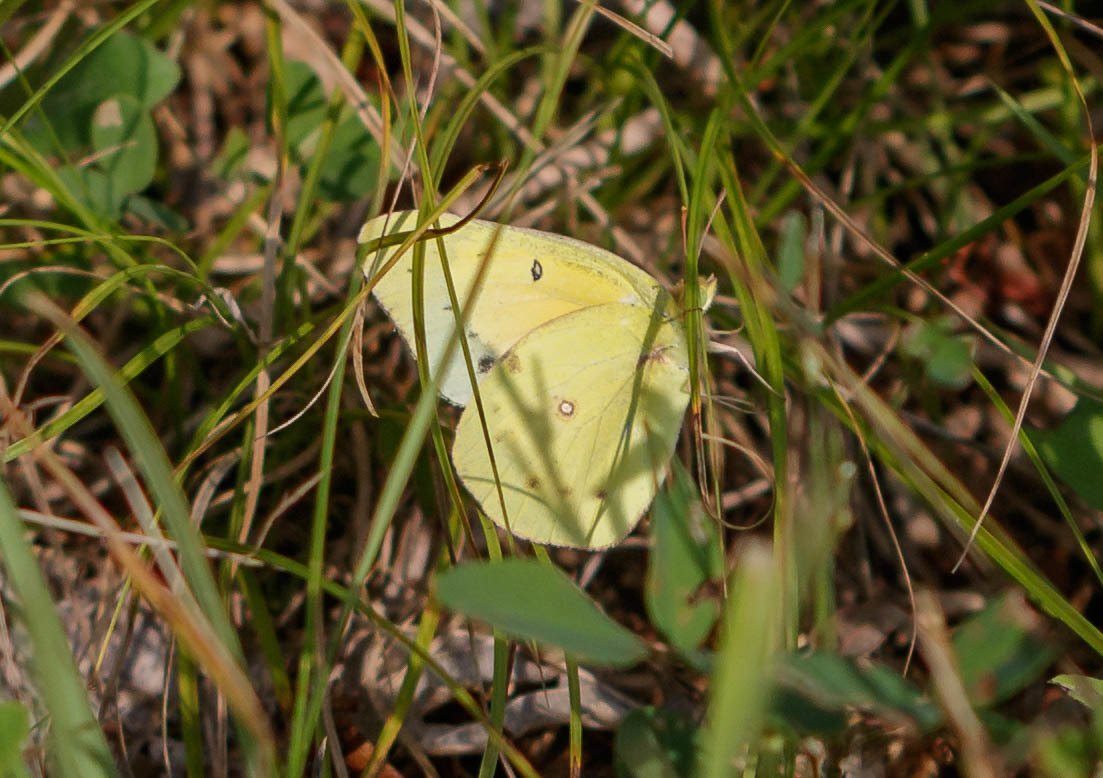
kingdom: Animalia
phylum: Arthropoda
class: Insecta
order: Lepidoptera
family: Pieridae
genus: Colias
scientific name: Colias eurytheme
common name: Alfalfa butterfly
